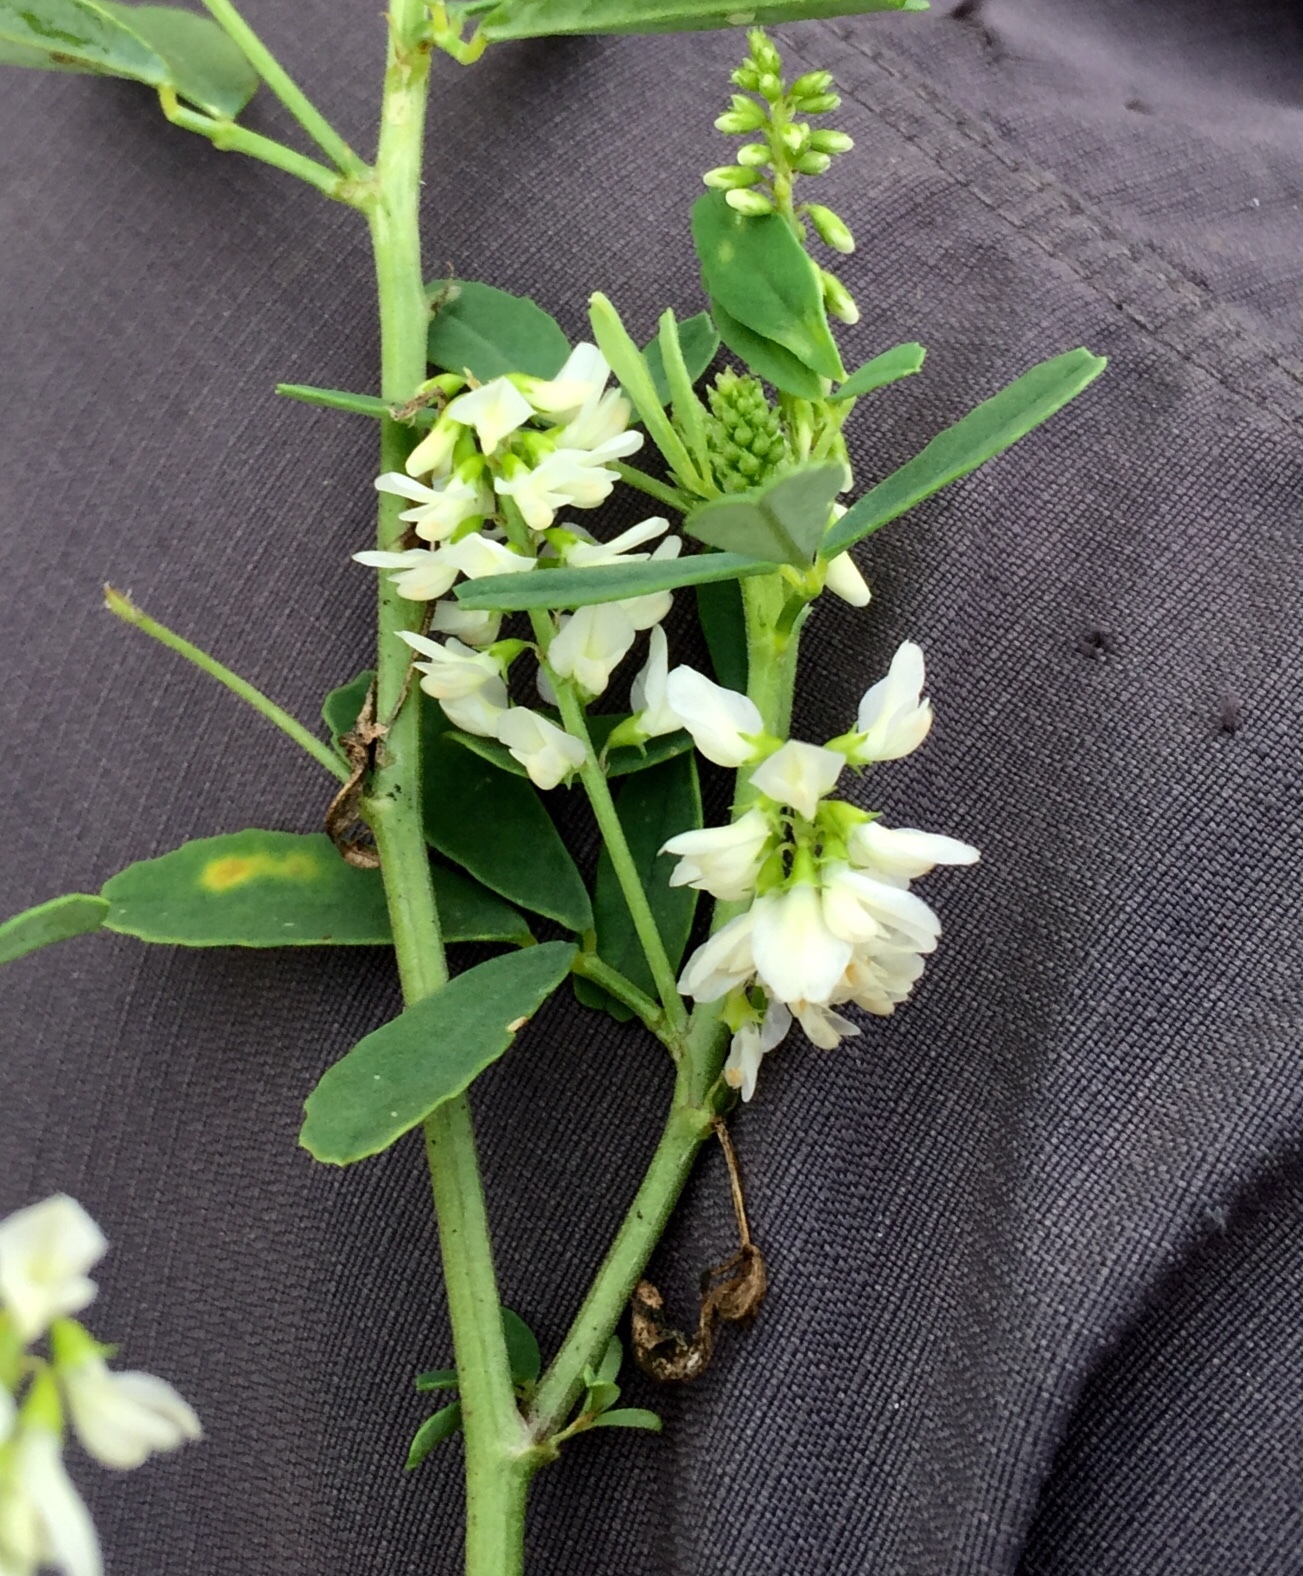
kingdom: Plantae
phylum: Tracheophyta
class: Magnoliopsida
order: Fabales
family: Fabaceae
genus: Melilotus
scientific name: Melilotus albus
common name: White melilot
